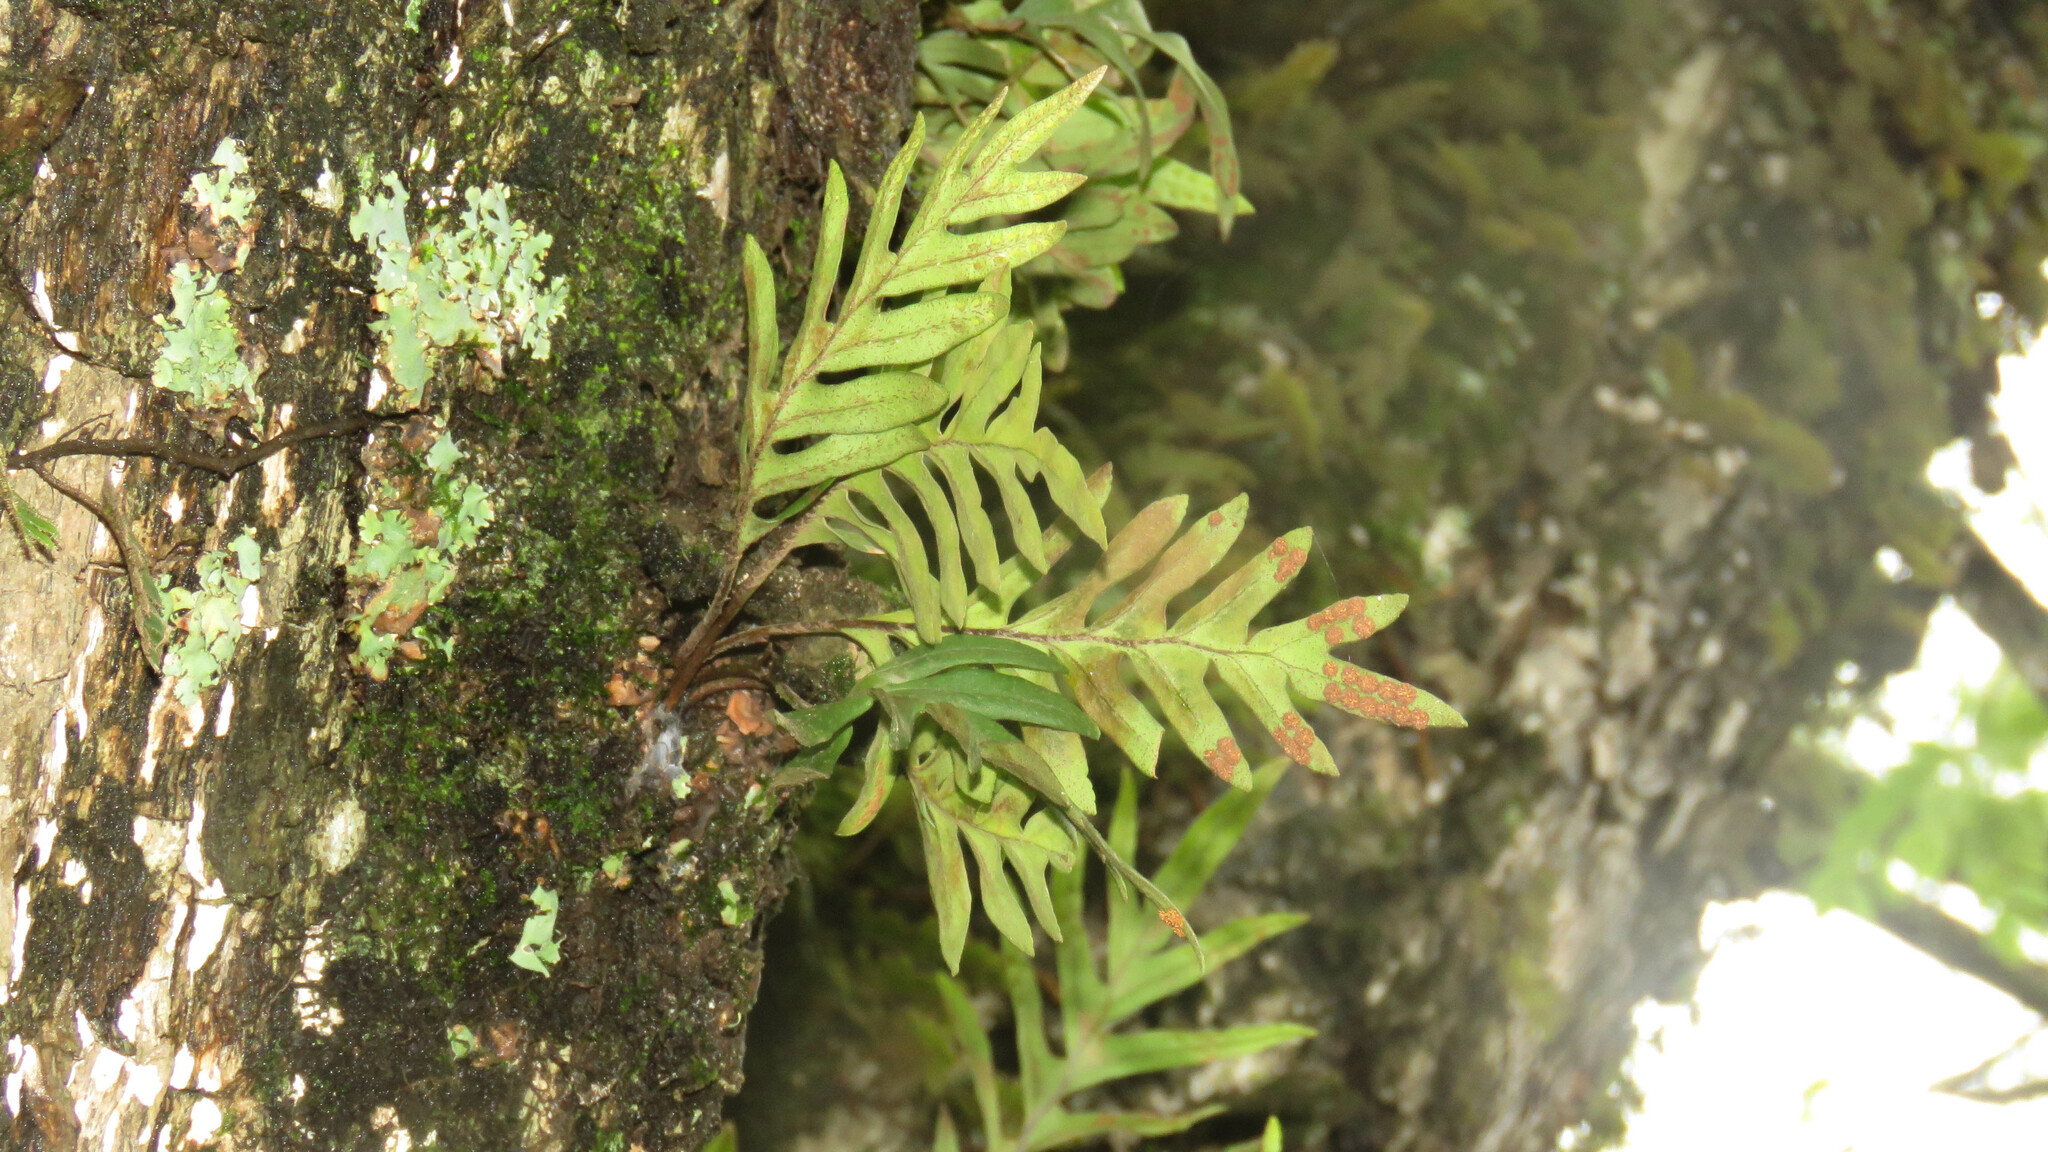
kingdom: Plantae
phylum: Tracheophyta
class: Polypodiopsida
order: Polypodiales
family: Polypodiaceae
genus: Pleopeltis
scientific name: Pleopeltis pleopeltifolia
